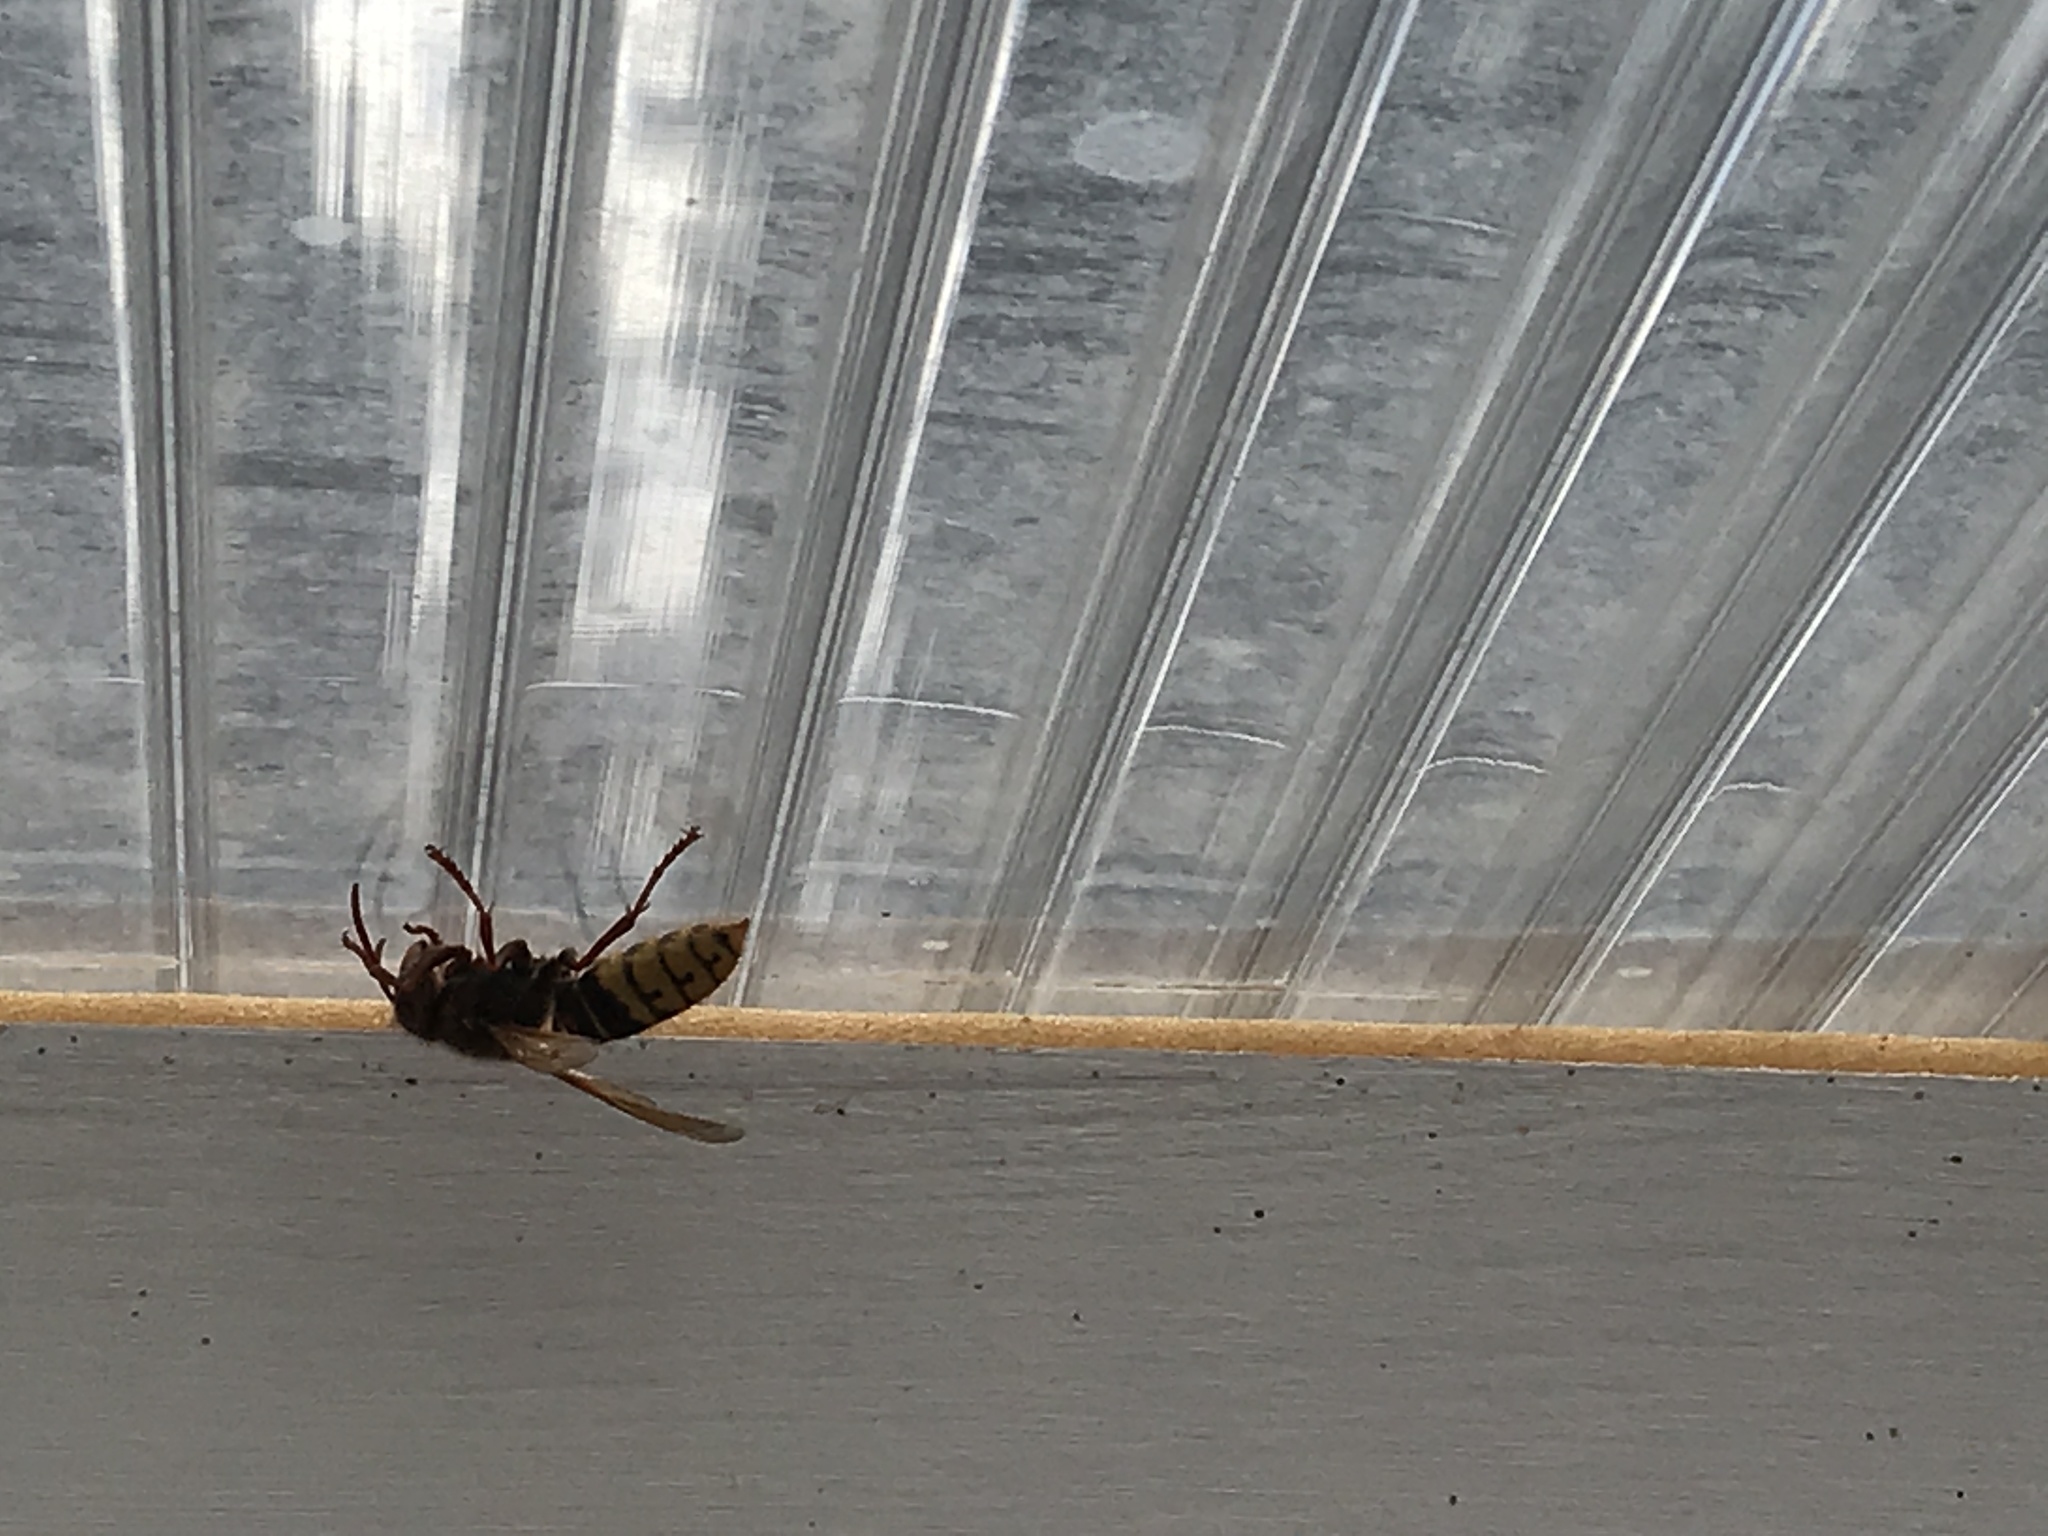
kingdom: Animalia
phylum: Arthropoda
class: Insecta
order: Hymenoptera
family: Vespidae
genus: Vespa
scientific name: Vespa crabro
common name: Hornet
